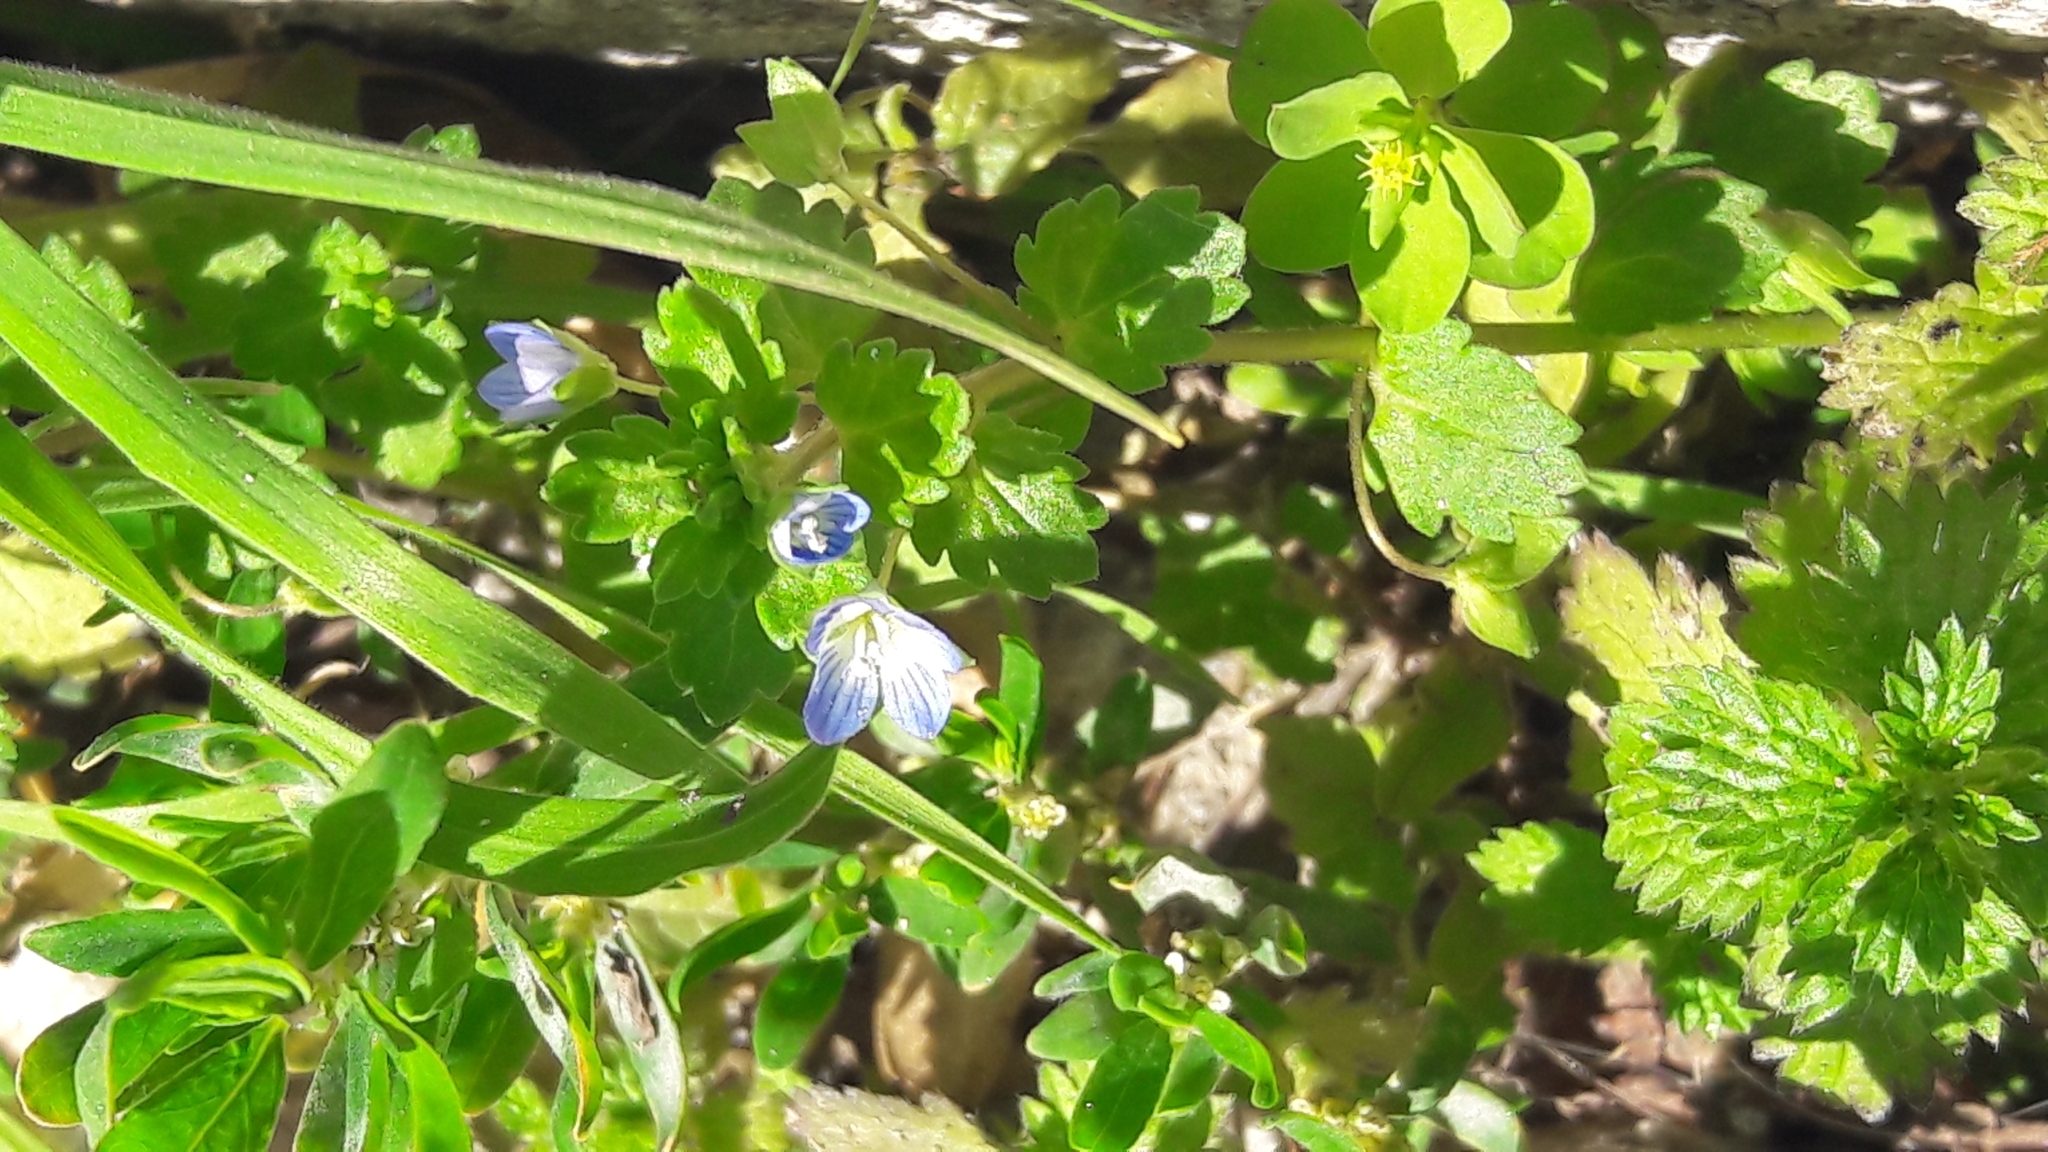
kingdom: Plantae
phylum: Tracheophyta
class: Magnoliopsida
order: Malpighiales
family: Euphorbiaceae
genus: Euphorbia
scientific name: Euphorbia peplus
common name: Petty spurge
